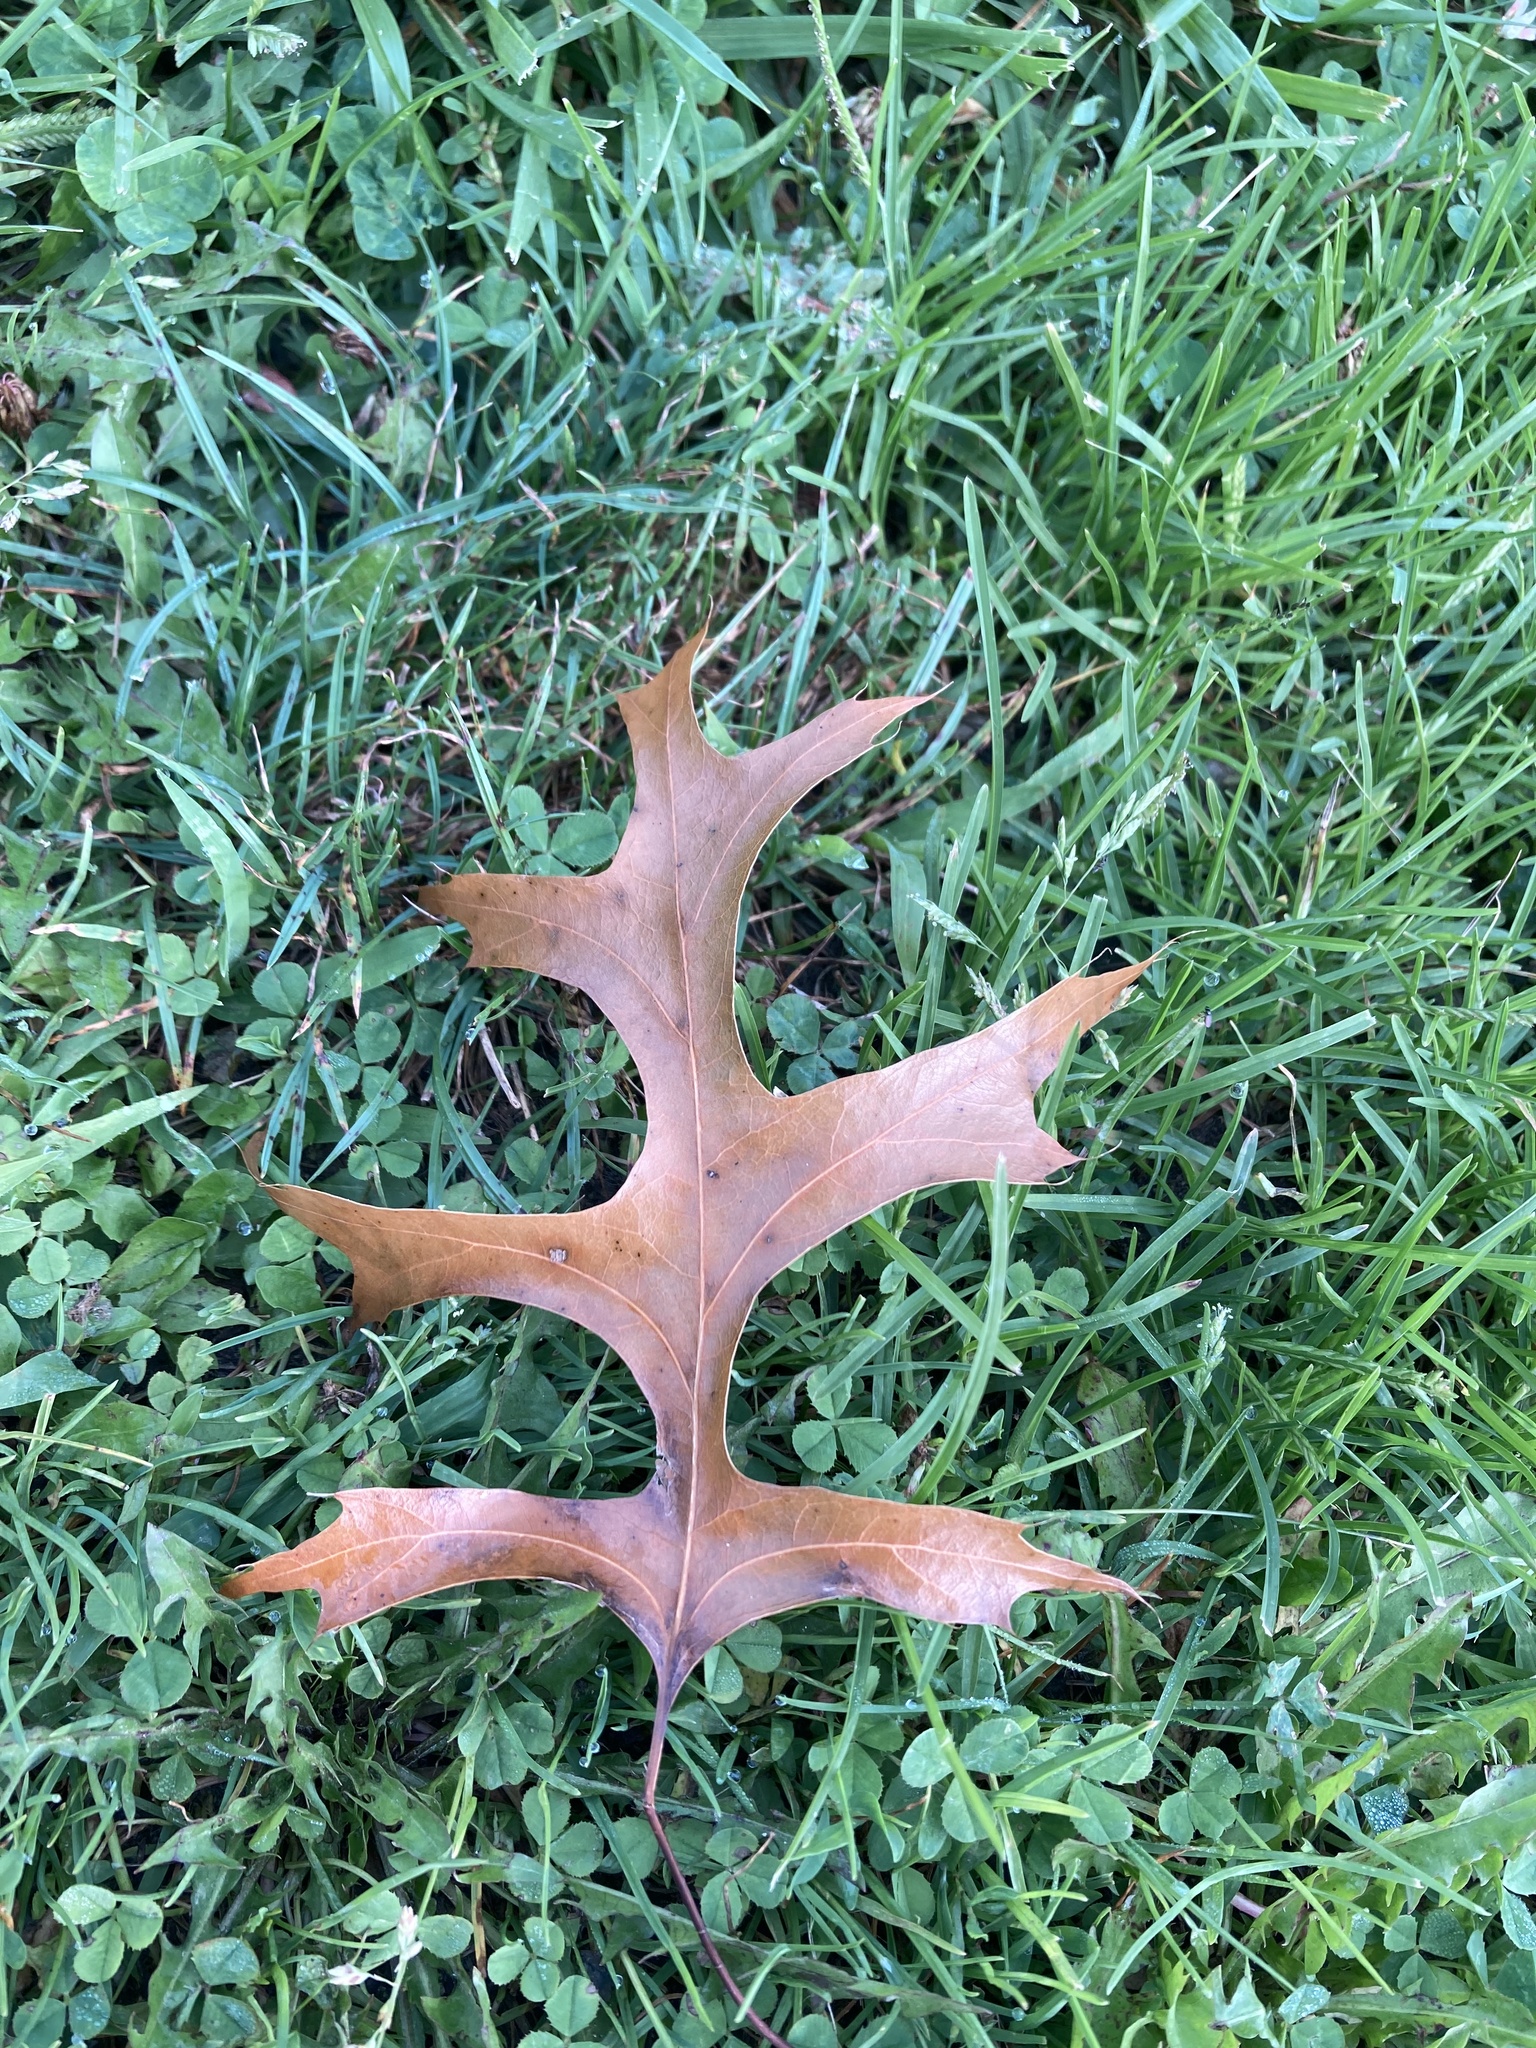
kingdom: Plantae
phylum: Tracheophyta
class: Magnoliopsida
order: Fagales
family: Fagaceae
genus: Quercus
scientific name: Quercus palustris
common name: Pin oak
